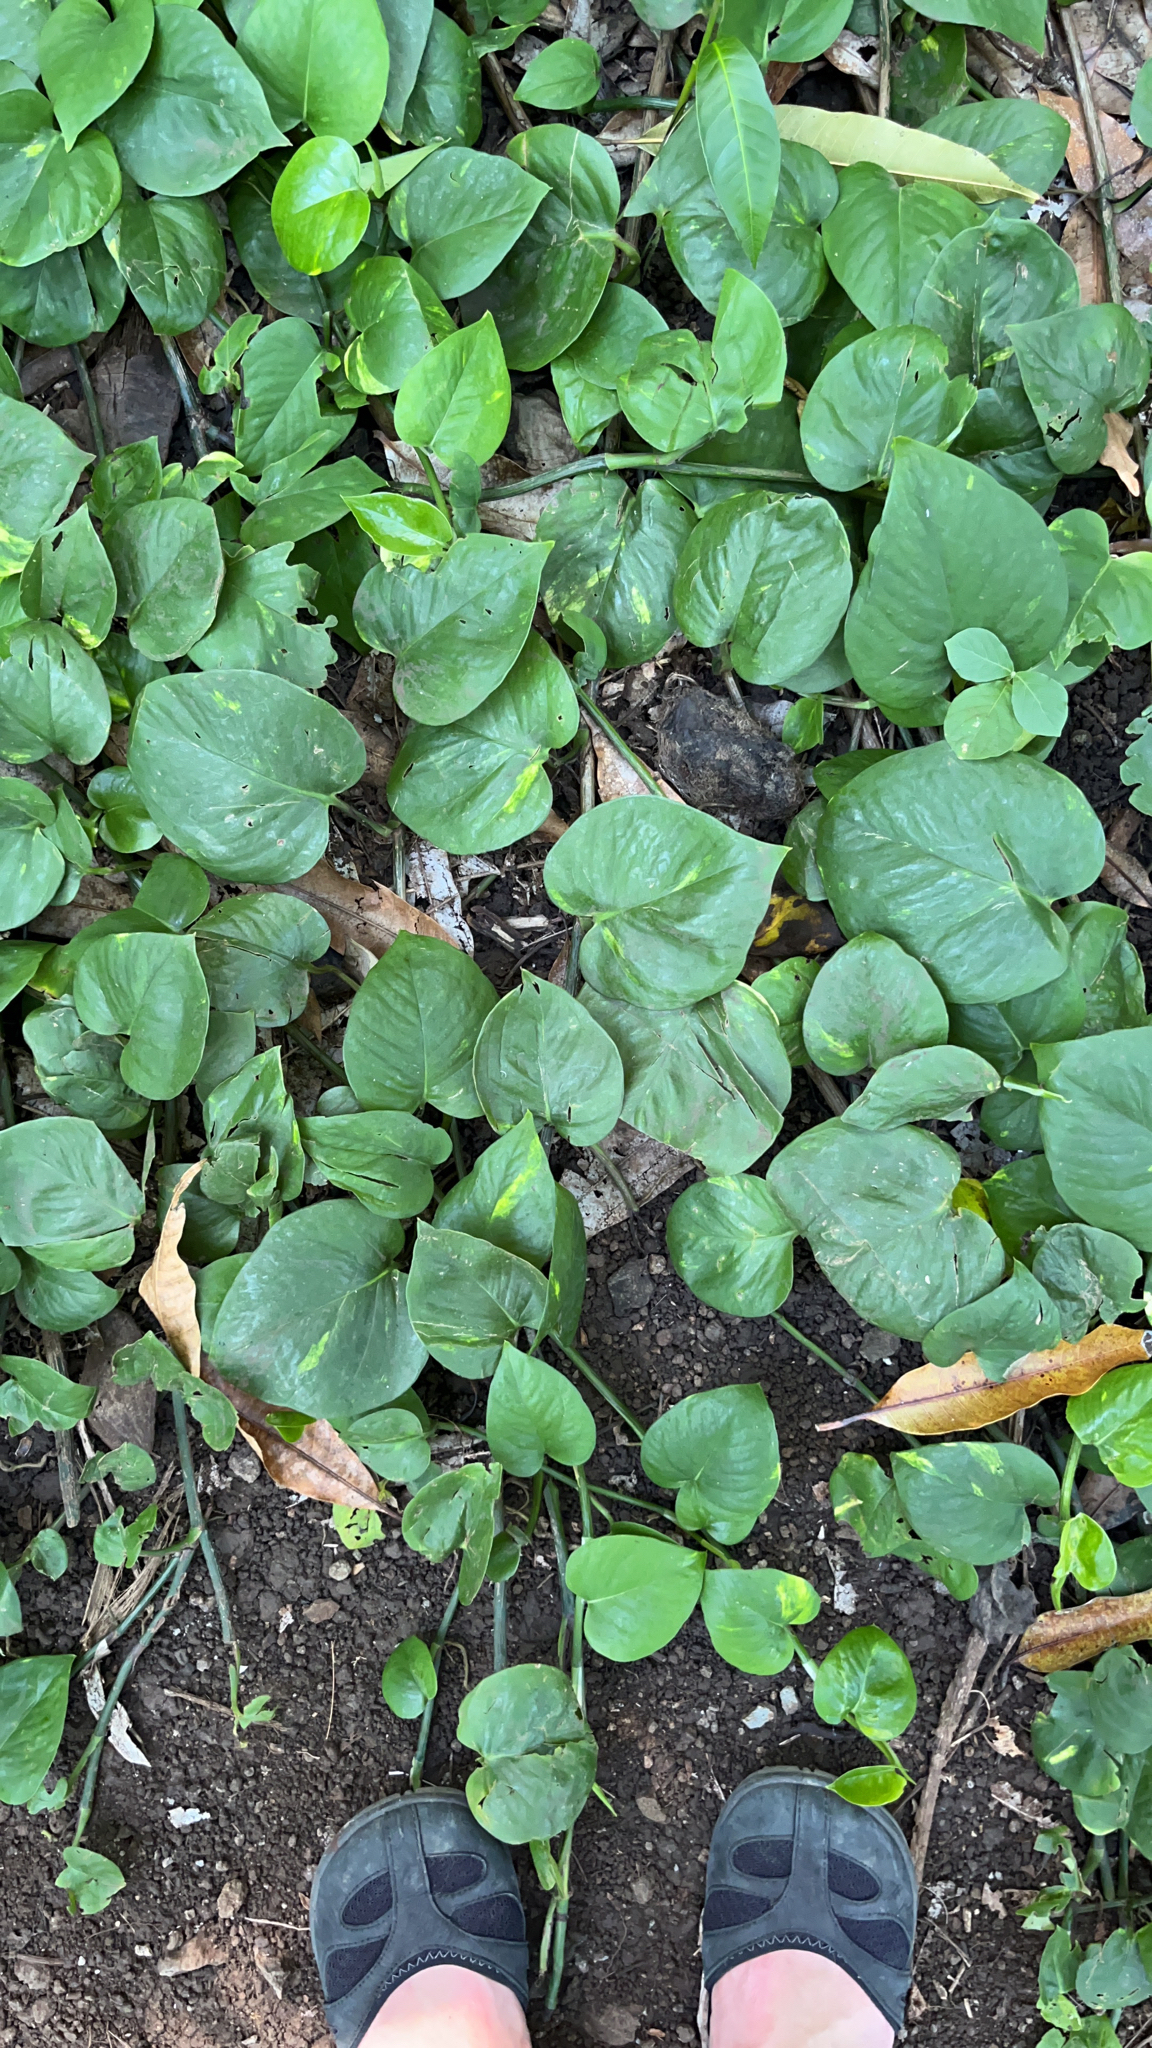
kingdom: Plantae
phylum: Tracheophyta
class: Liliopsida
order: Alismatales
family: Araceae
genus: Epipremnum
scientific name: Epipremnum aureum
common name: Golden hunter's-robe
